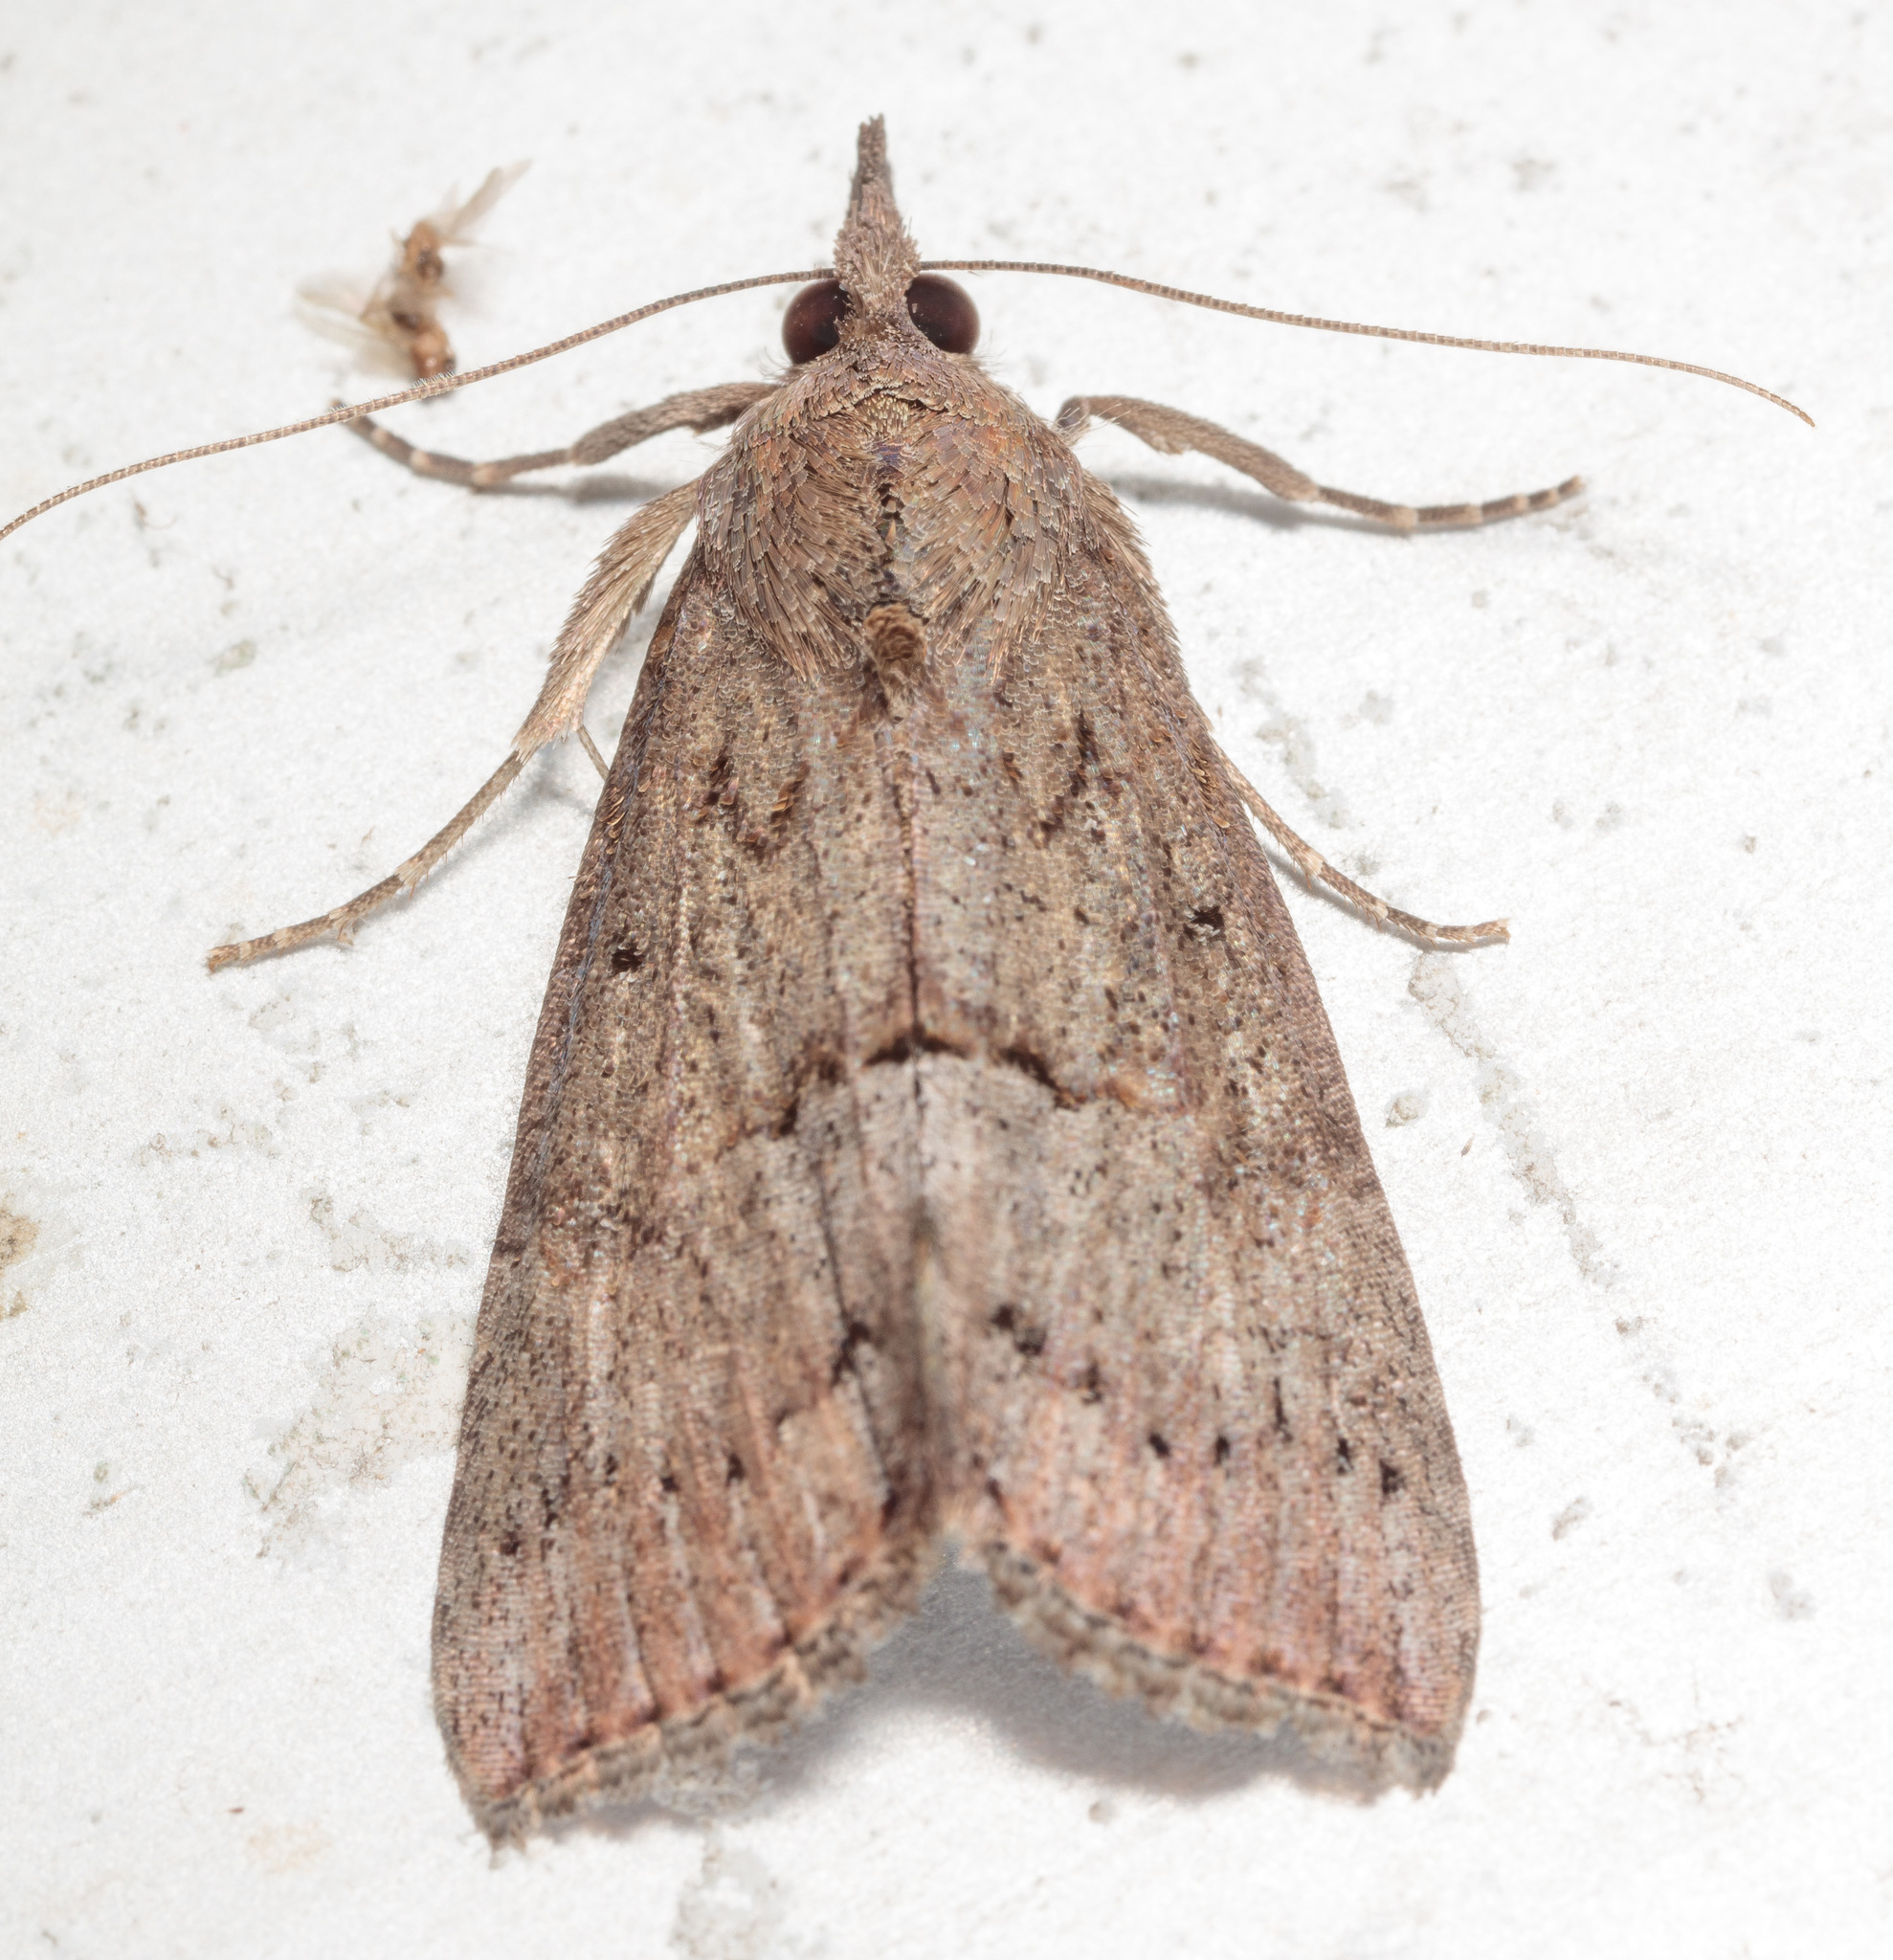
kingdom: Animalia
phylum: Arthropoda
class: Insecta
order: Lepidoptera
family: Erebidae
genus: Hypena
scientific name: Hypena scabra
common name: Green cloverworm
